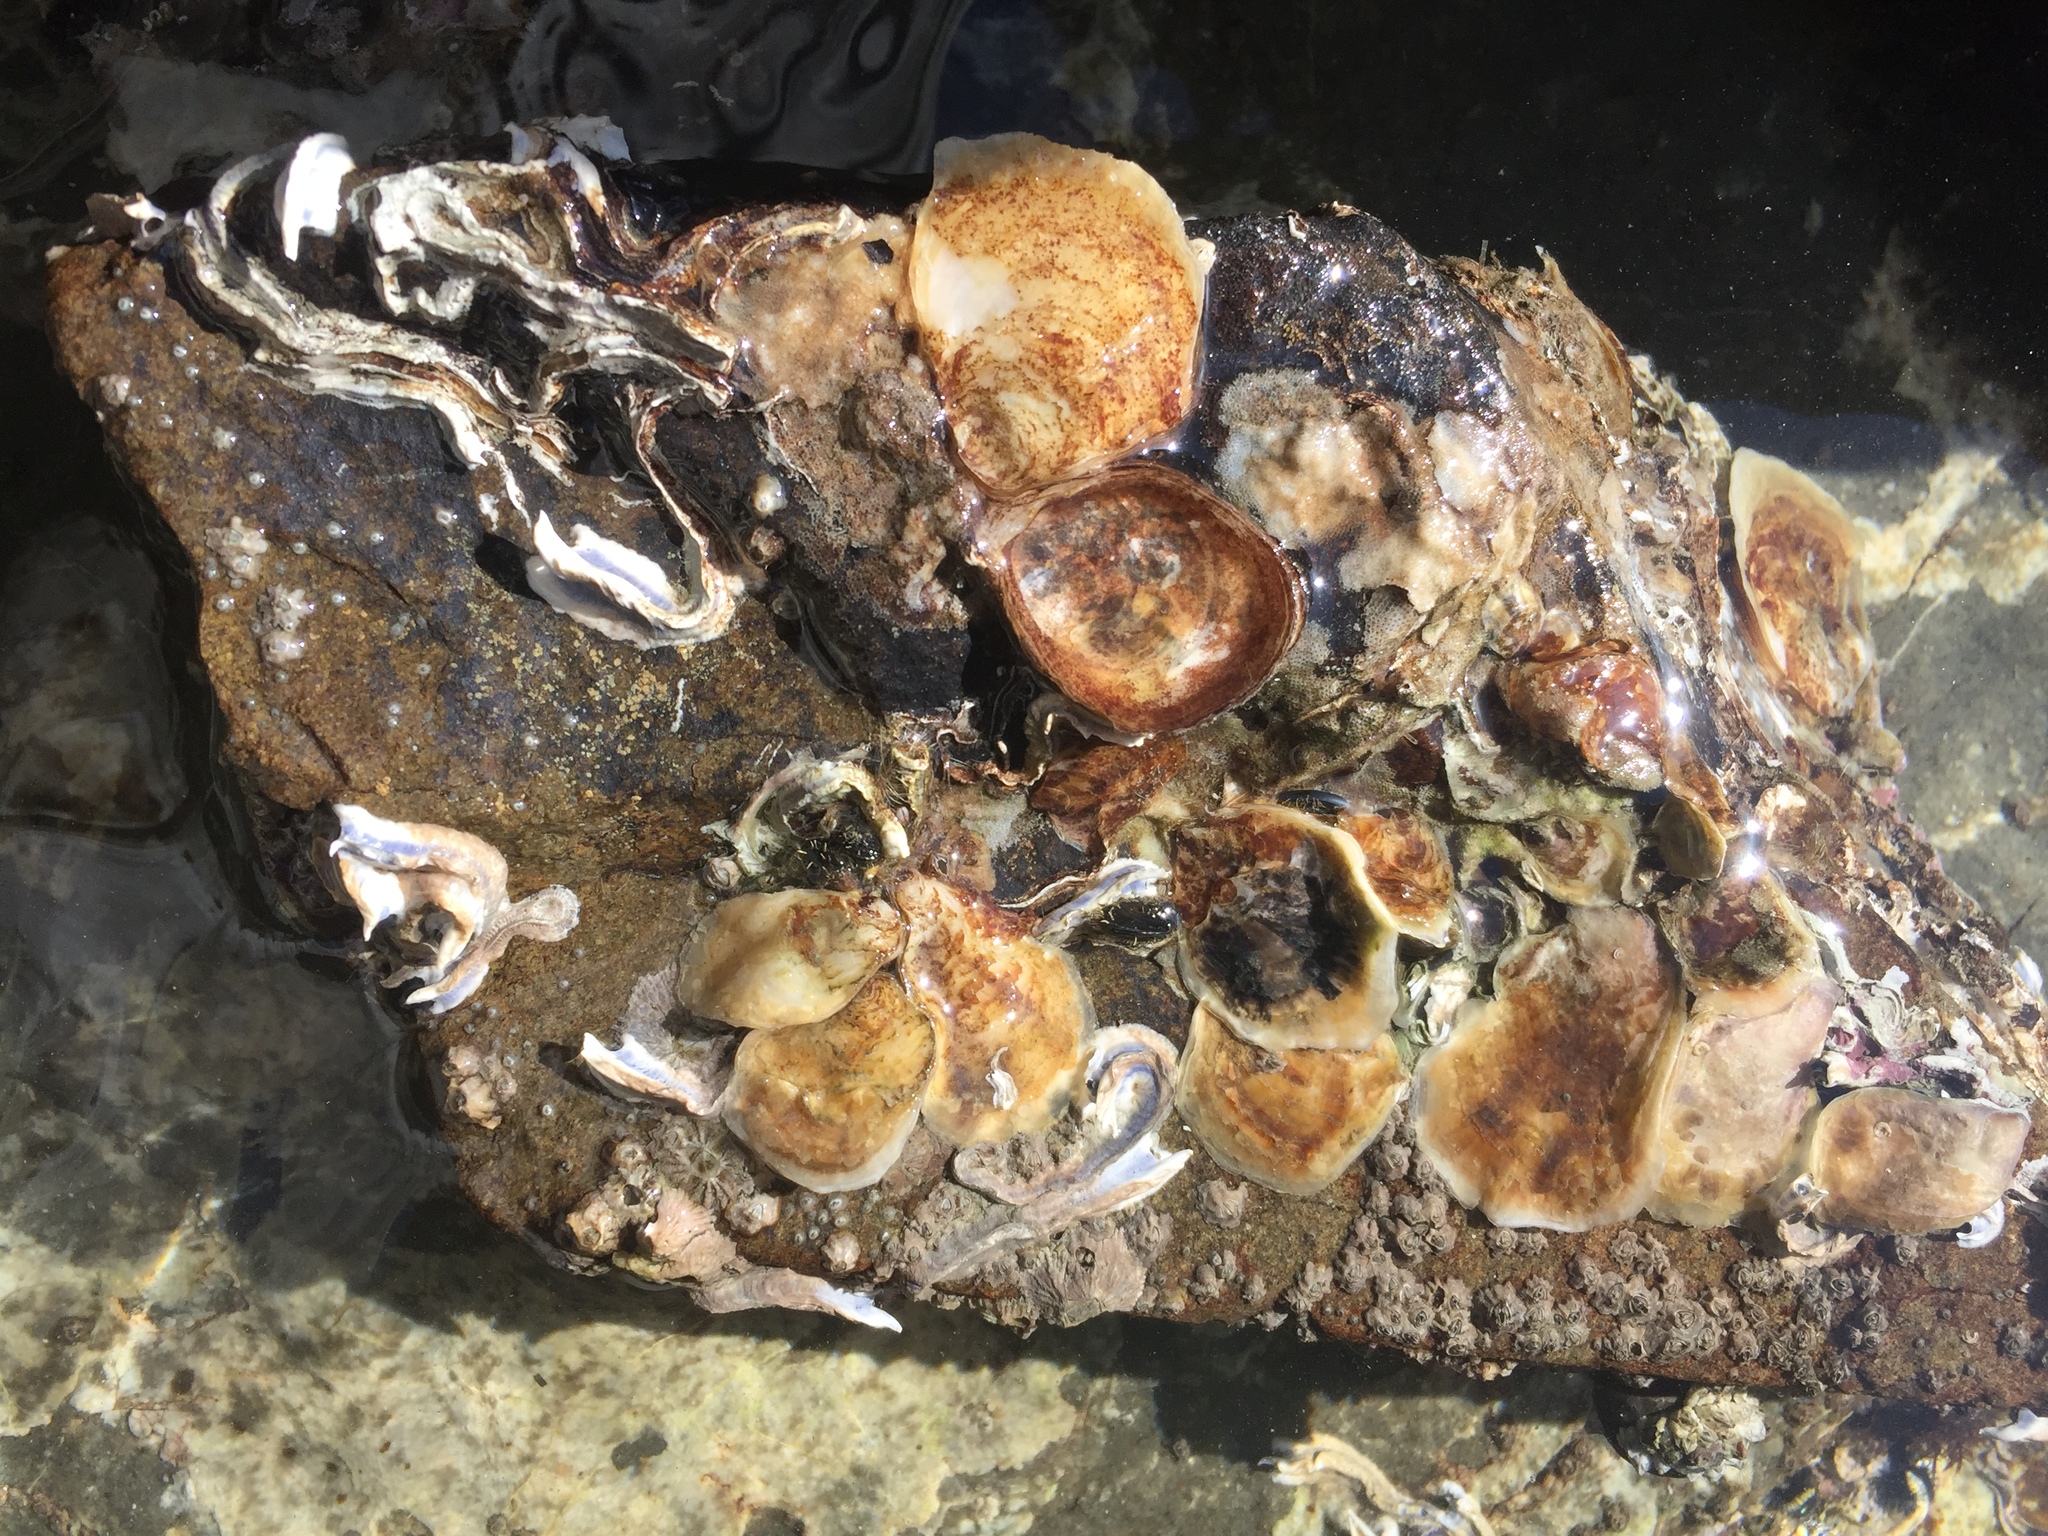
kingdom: Animalia
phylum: Mollusca
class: Bivalvia
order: Ostreida
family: Ostreidae
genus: Ostrea
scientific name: Ostrea chilensis
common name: Chilean oyster
